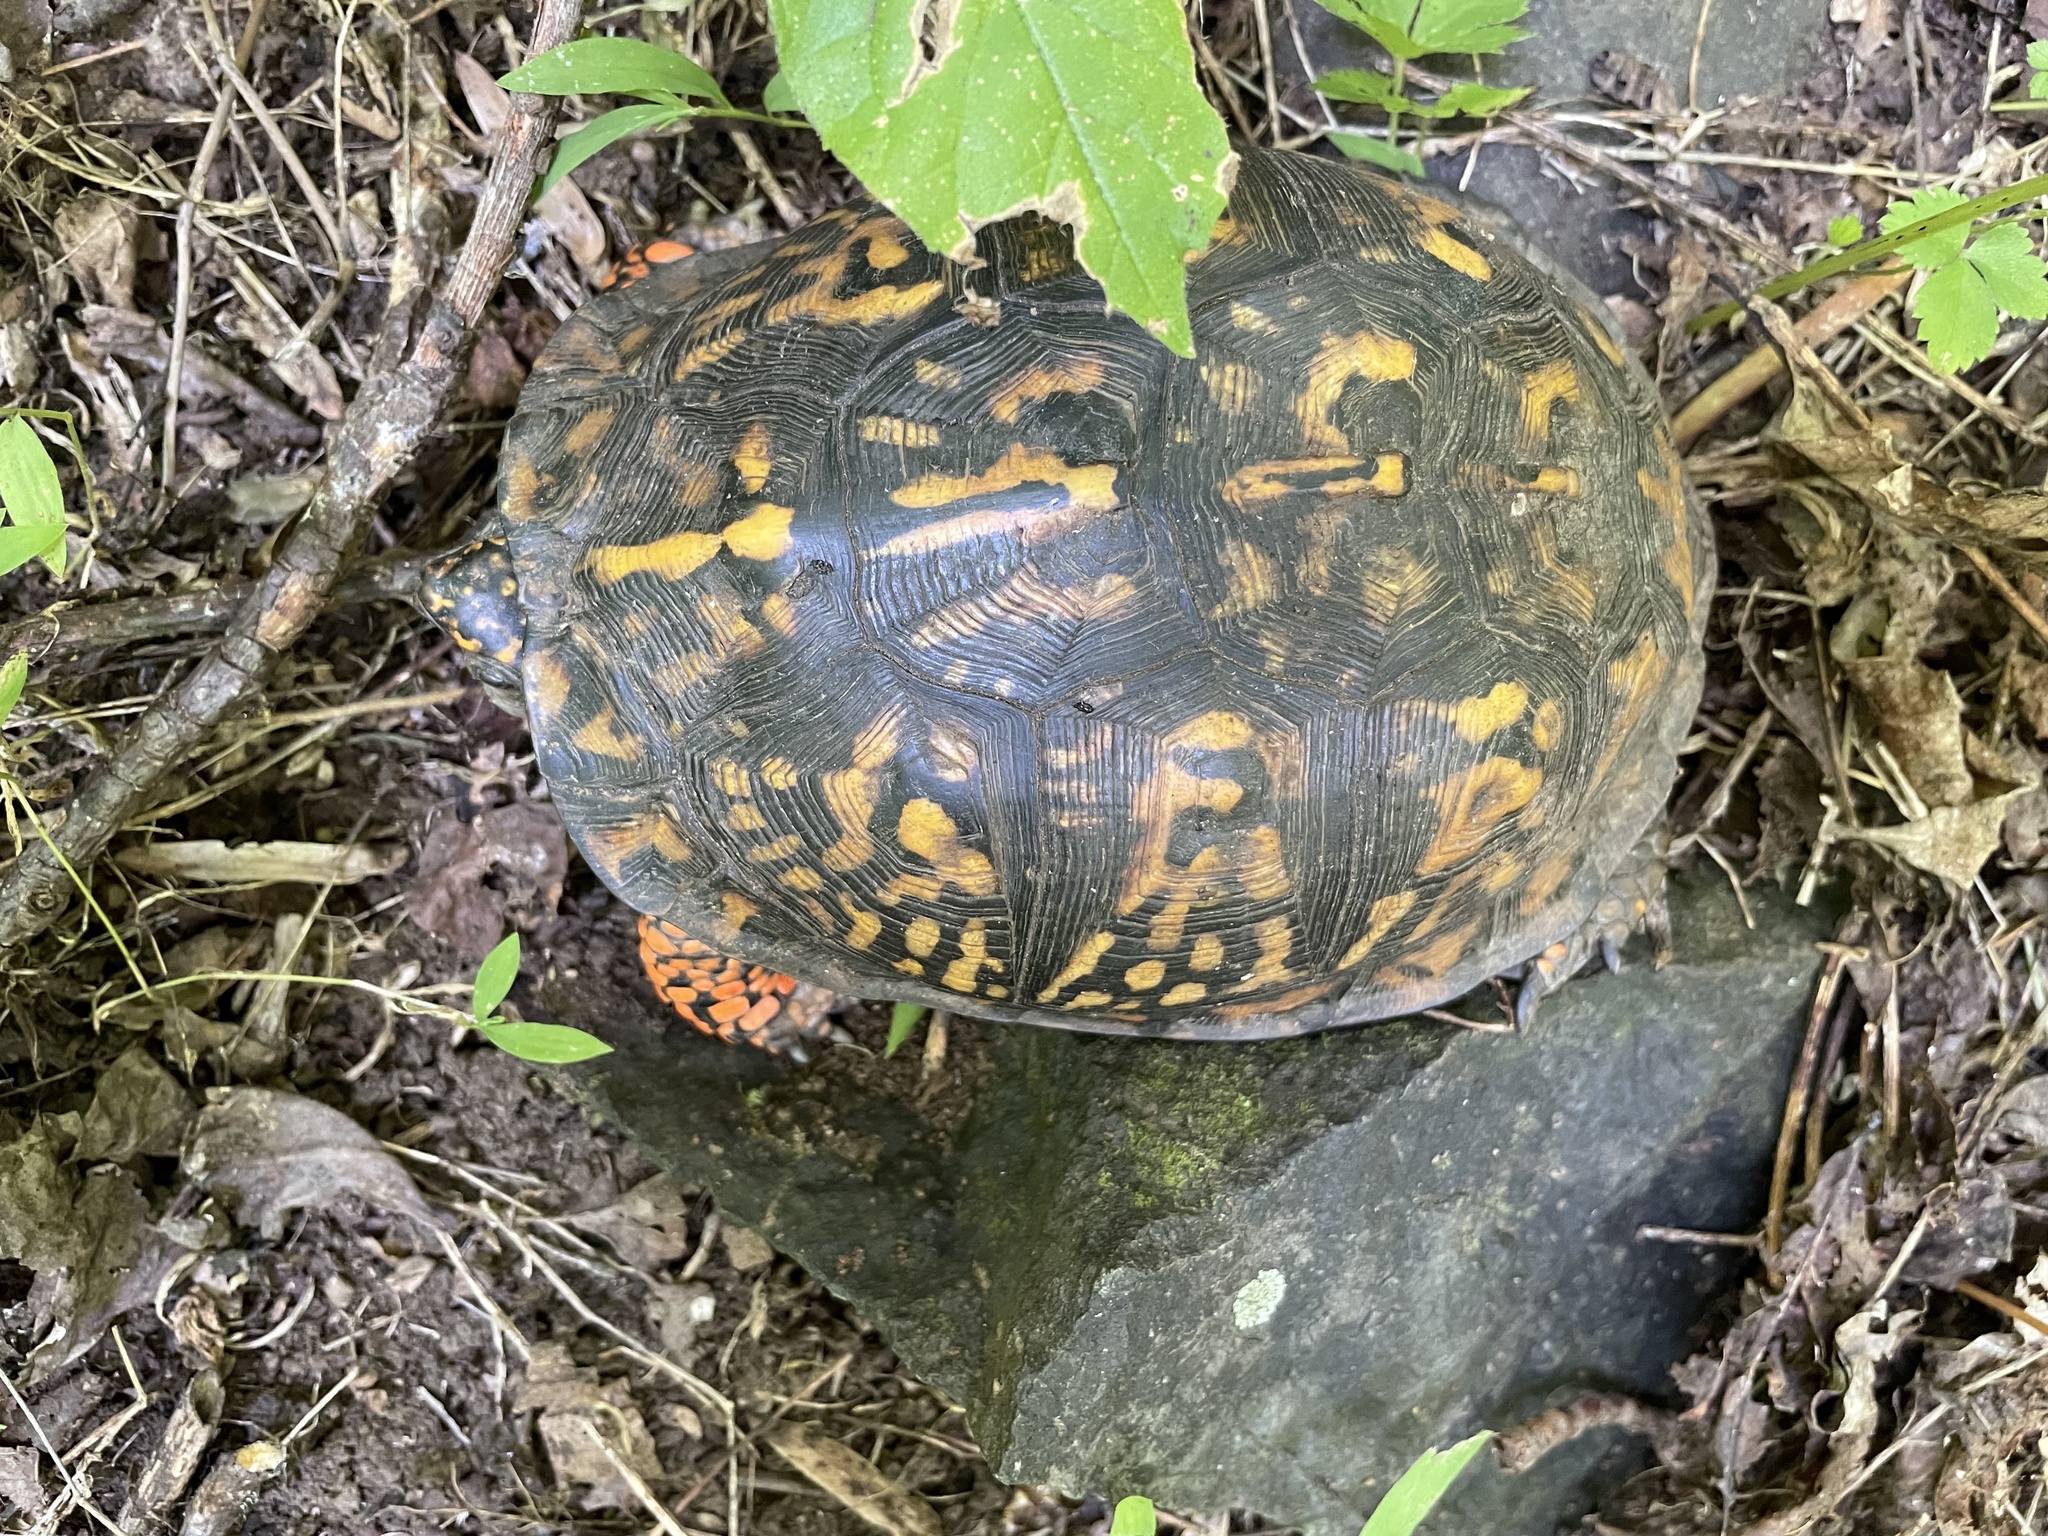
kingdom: Animalia
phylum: Chordata
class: Testudines
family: Emydidae
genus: Terrapene
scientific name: Terrapene carolina
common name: Common box turtle
